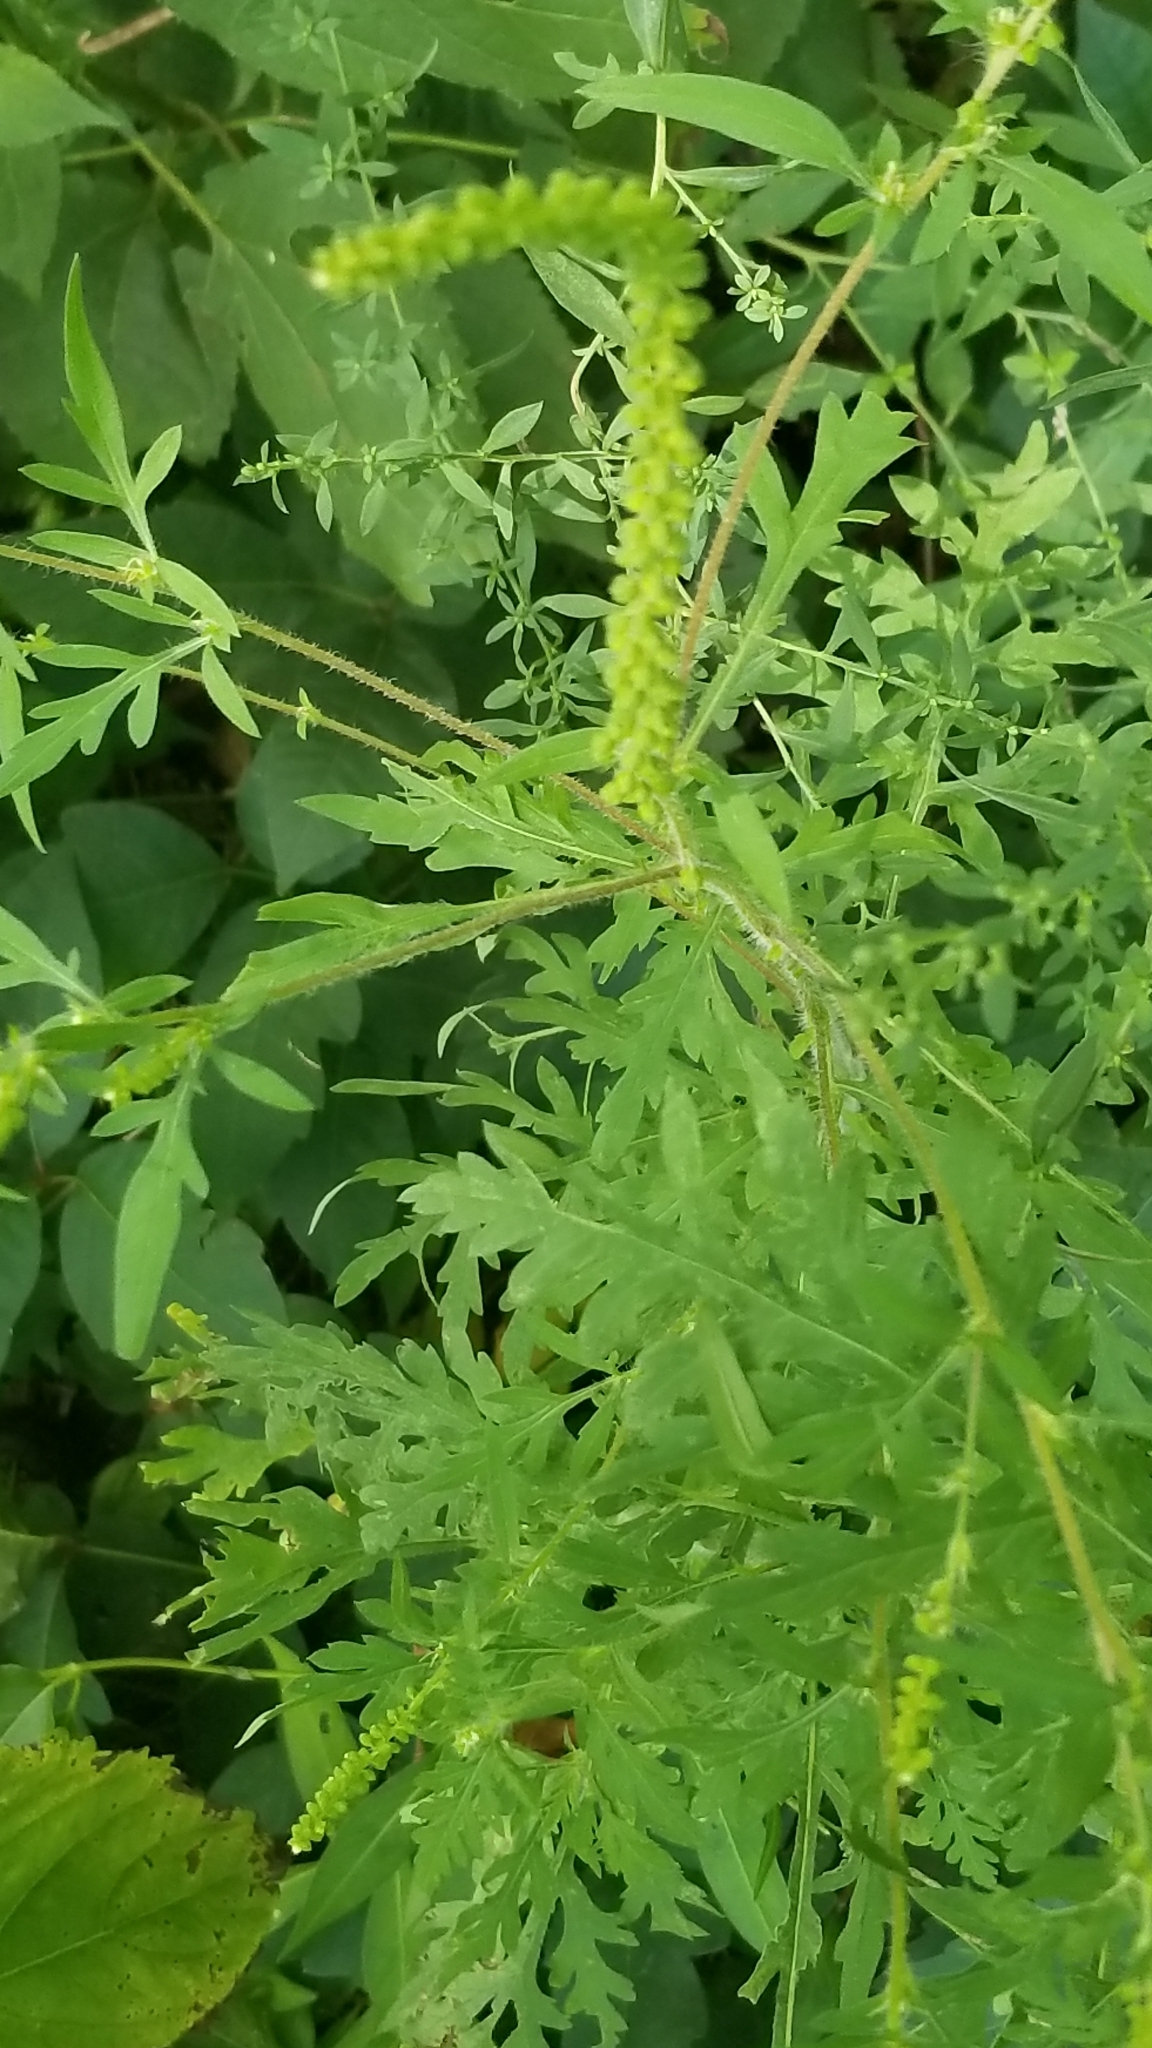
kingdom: Plantae
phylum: Tracheophyta
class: Magnoliopsida
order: Asterales
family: Asteraceae
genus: Ambrosia
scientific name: Ambrosia artemisiifolia
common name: Annual ragweed
